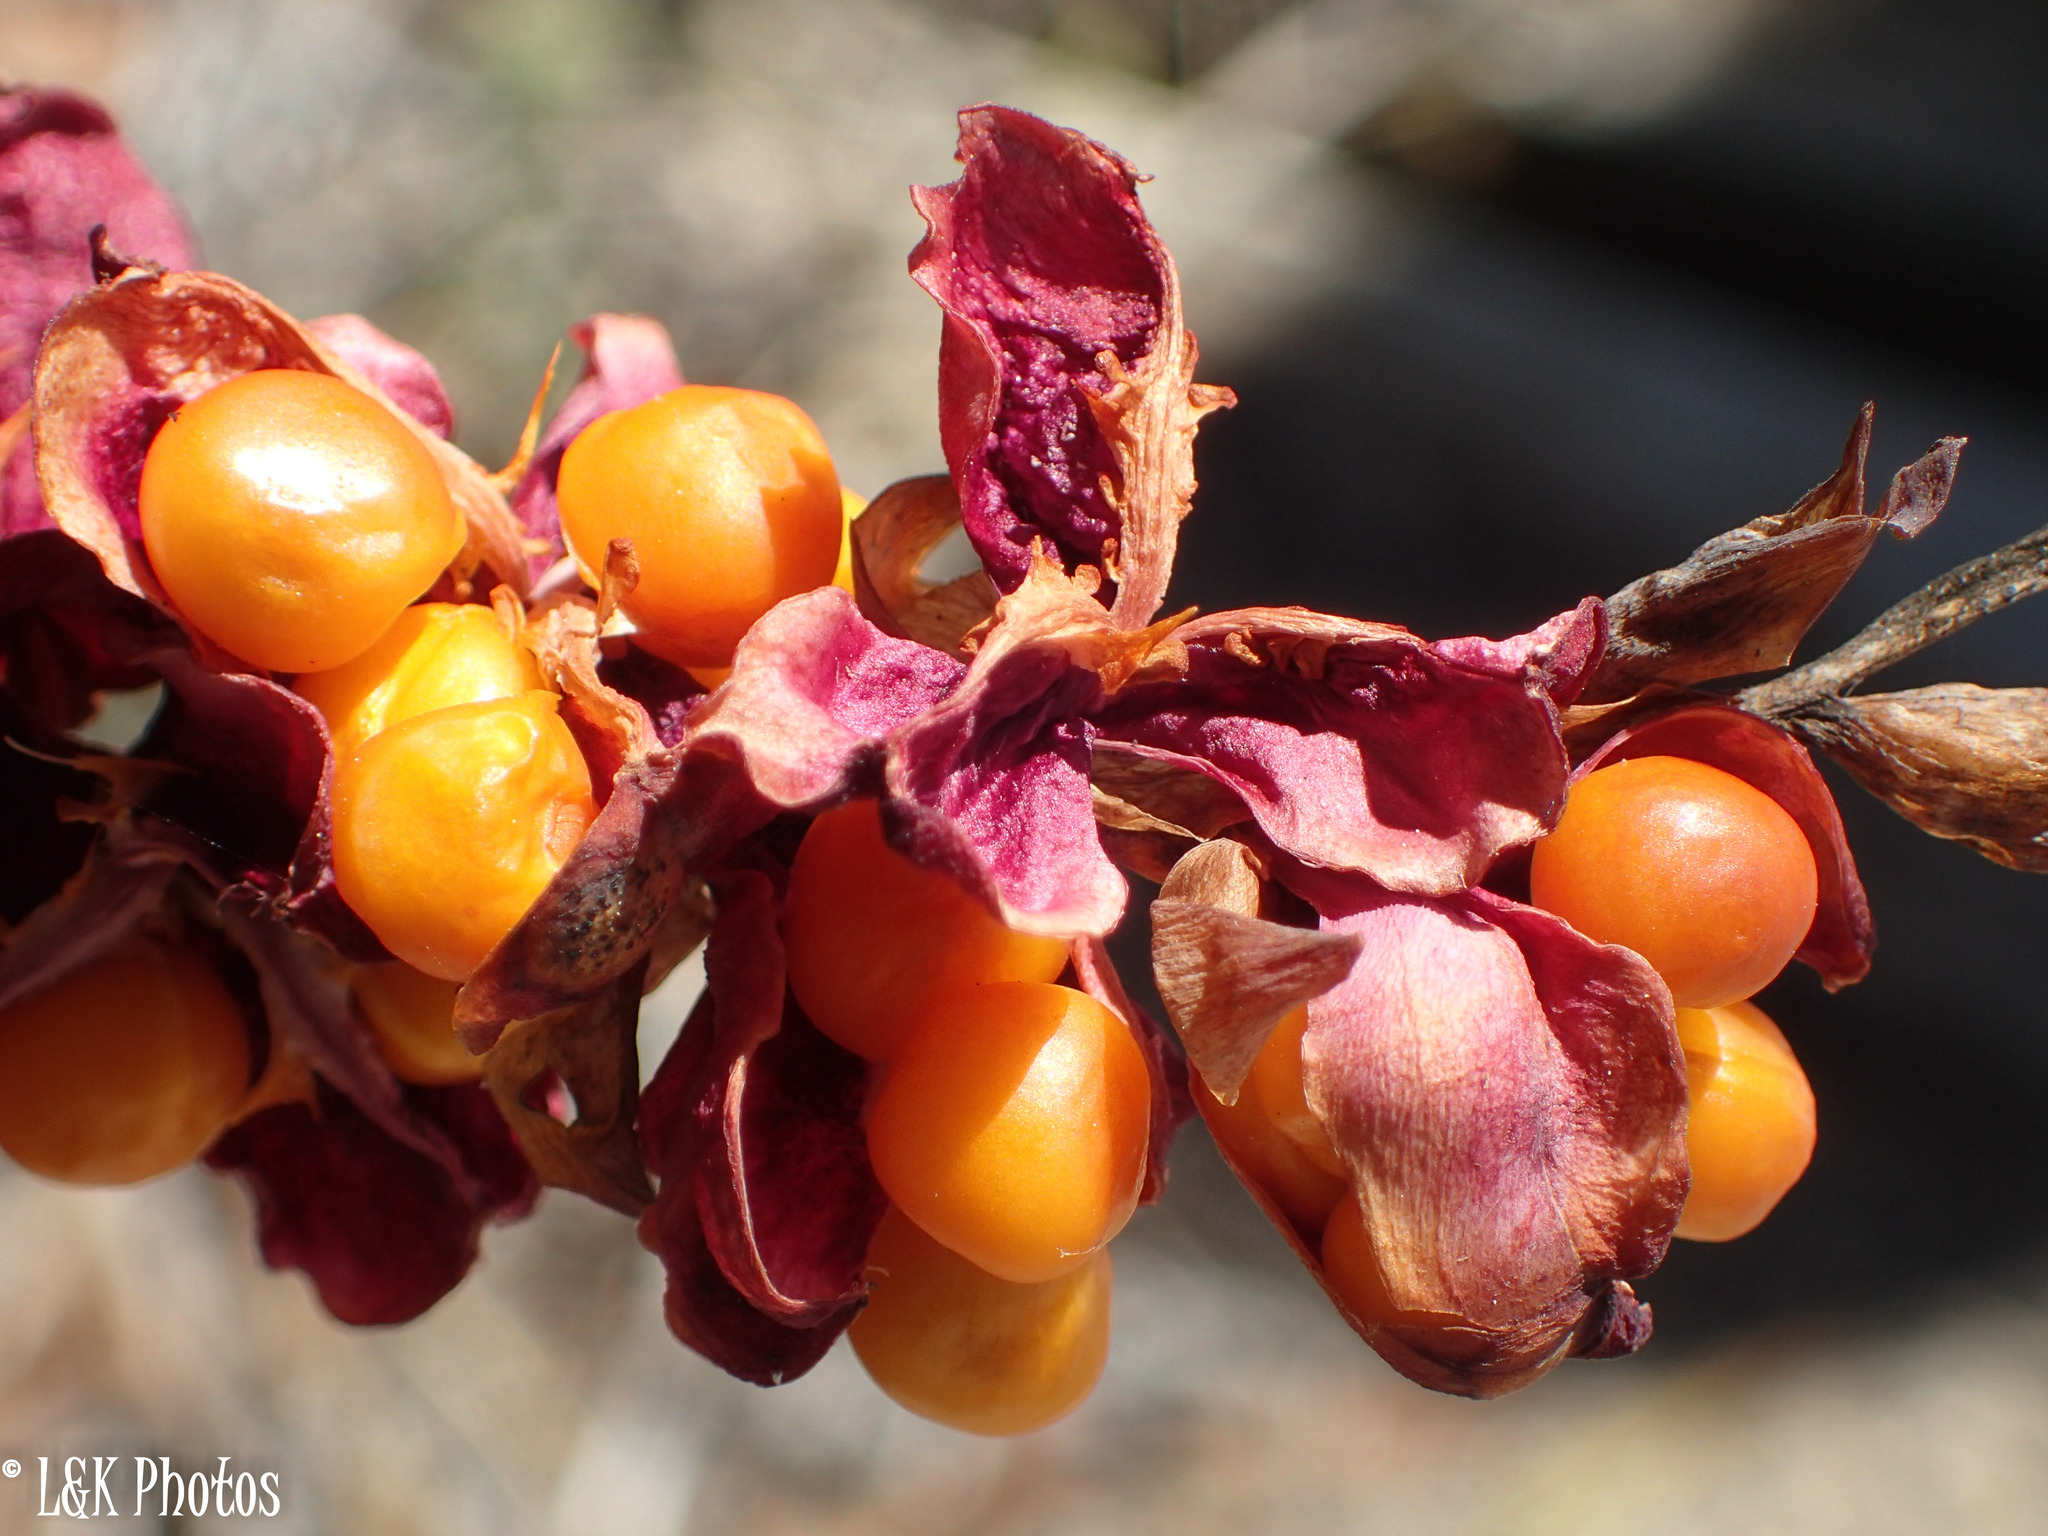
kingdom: Plantae
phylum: Tracheophyta
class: Liliopsida
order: Asparagales
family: Iridaceae
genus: Chasmanthe
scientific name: Chasmanthe aethiopica
